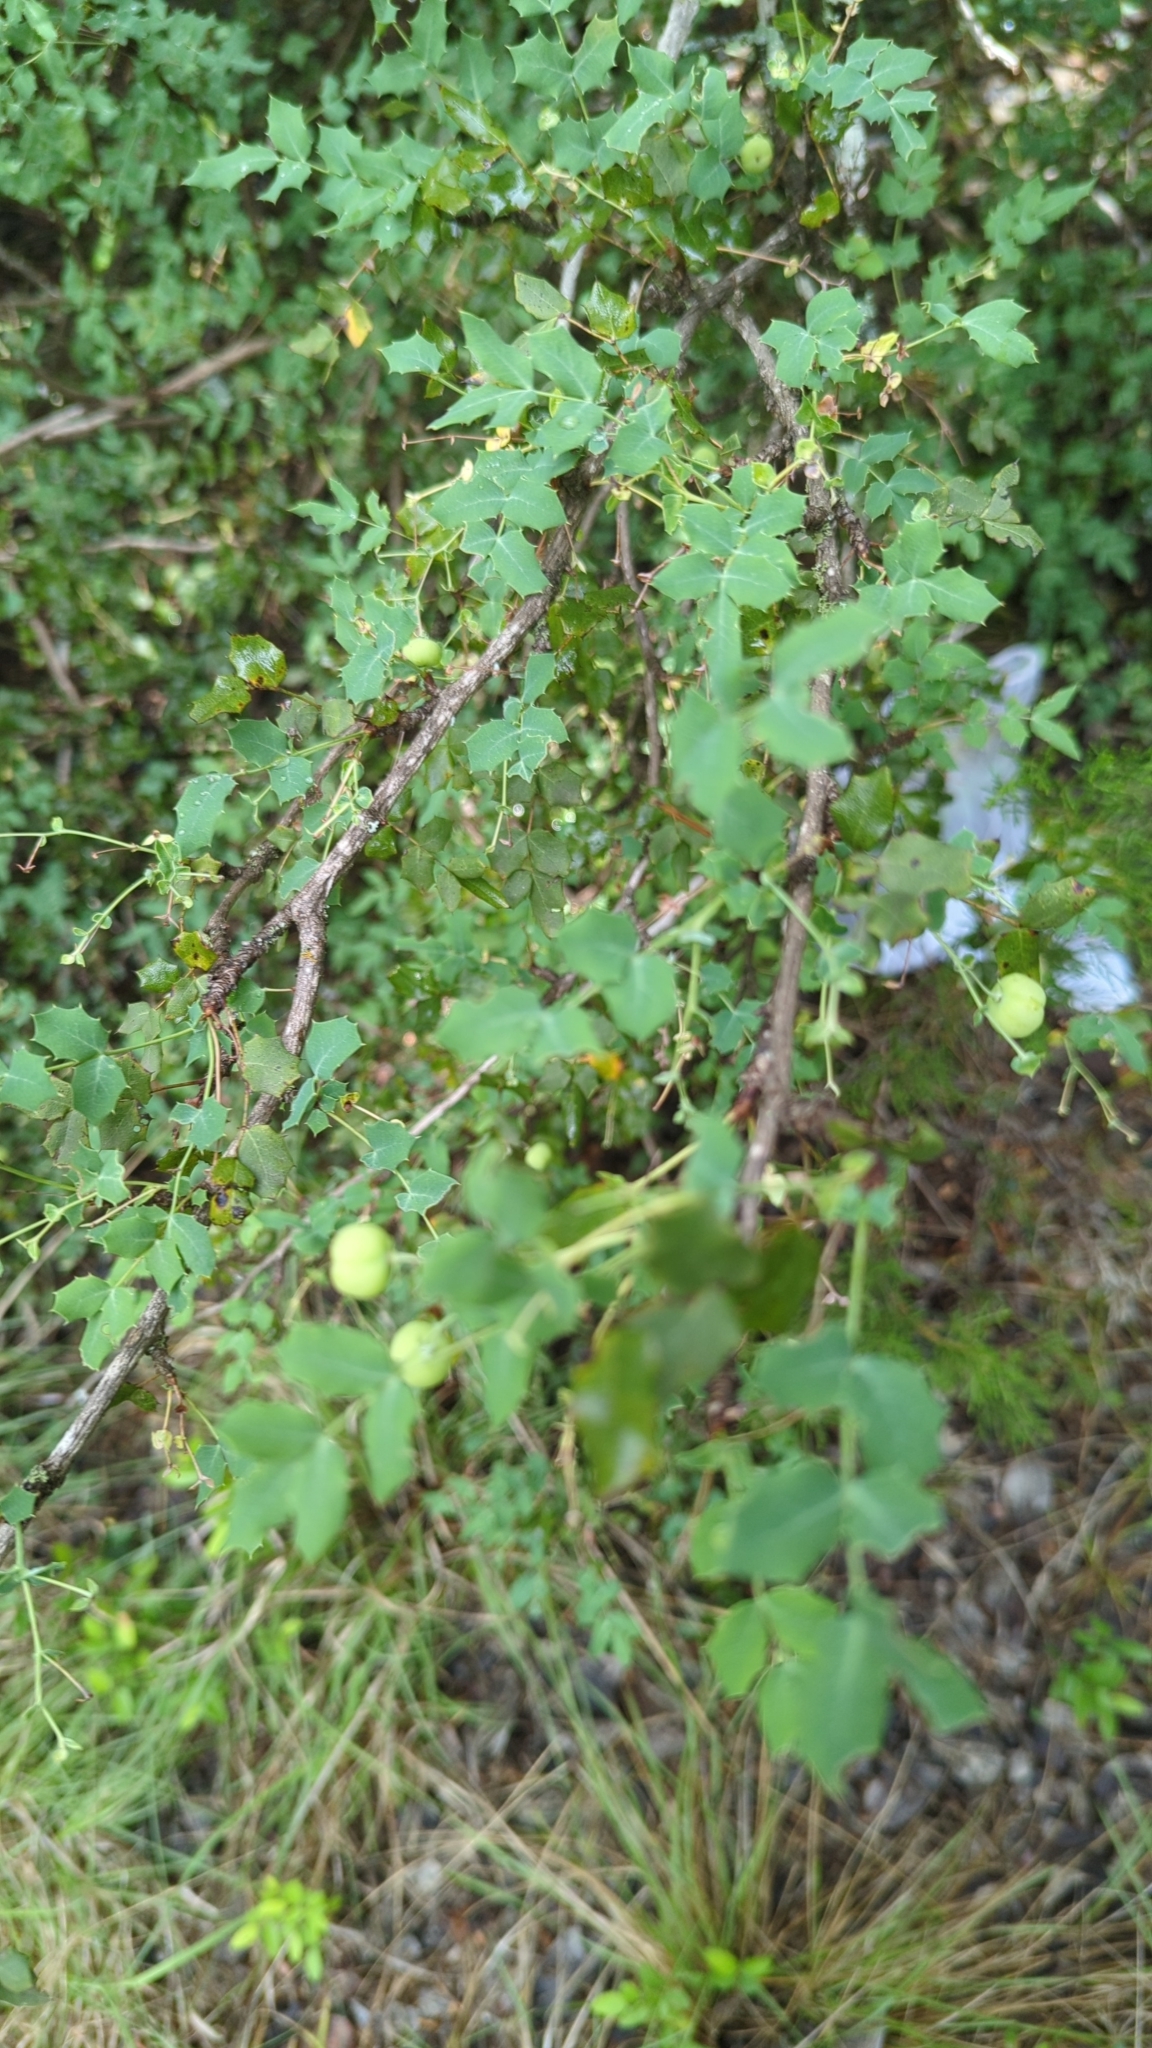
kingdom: Plantae
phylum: Tracheophyta
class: Magnoliopsida
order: Ranunculales
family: Berberidaceae
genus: Berberis
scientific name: Berberis swaseyi
